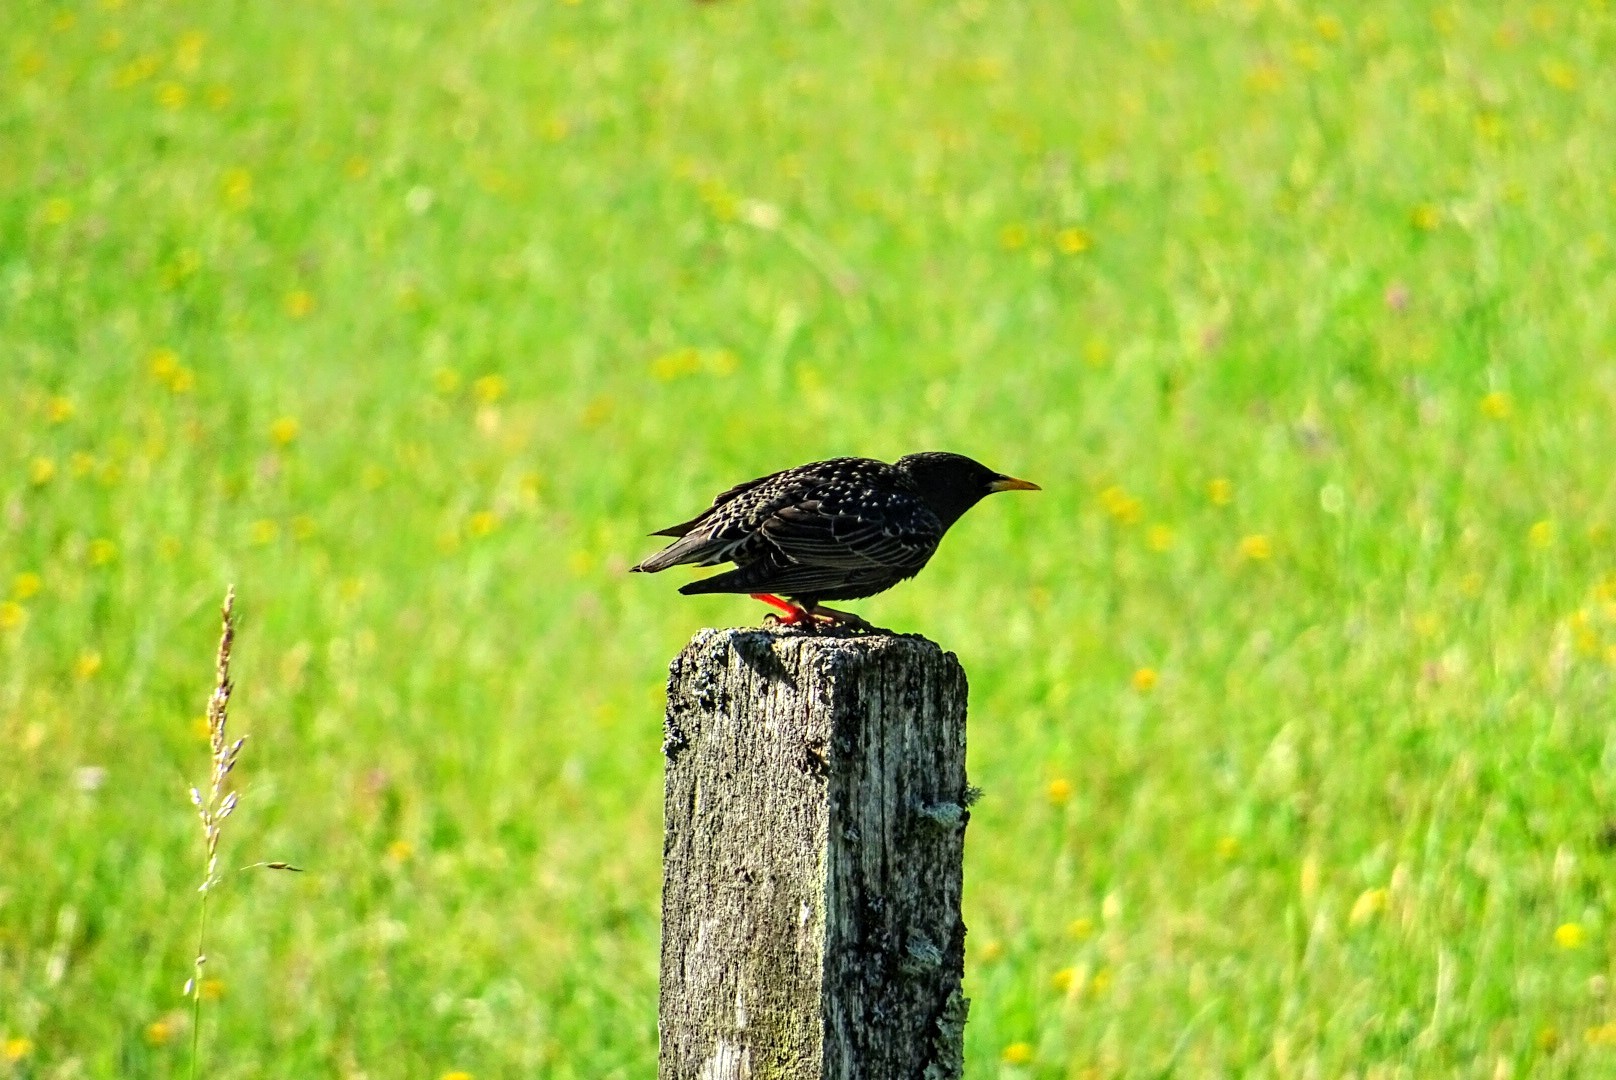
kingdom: Animalia
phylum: Chordata
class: Aves
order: Passeriformes
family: Sturnidae
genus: Sturnus
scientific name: Sturnus vulgaris
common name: Common starling
